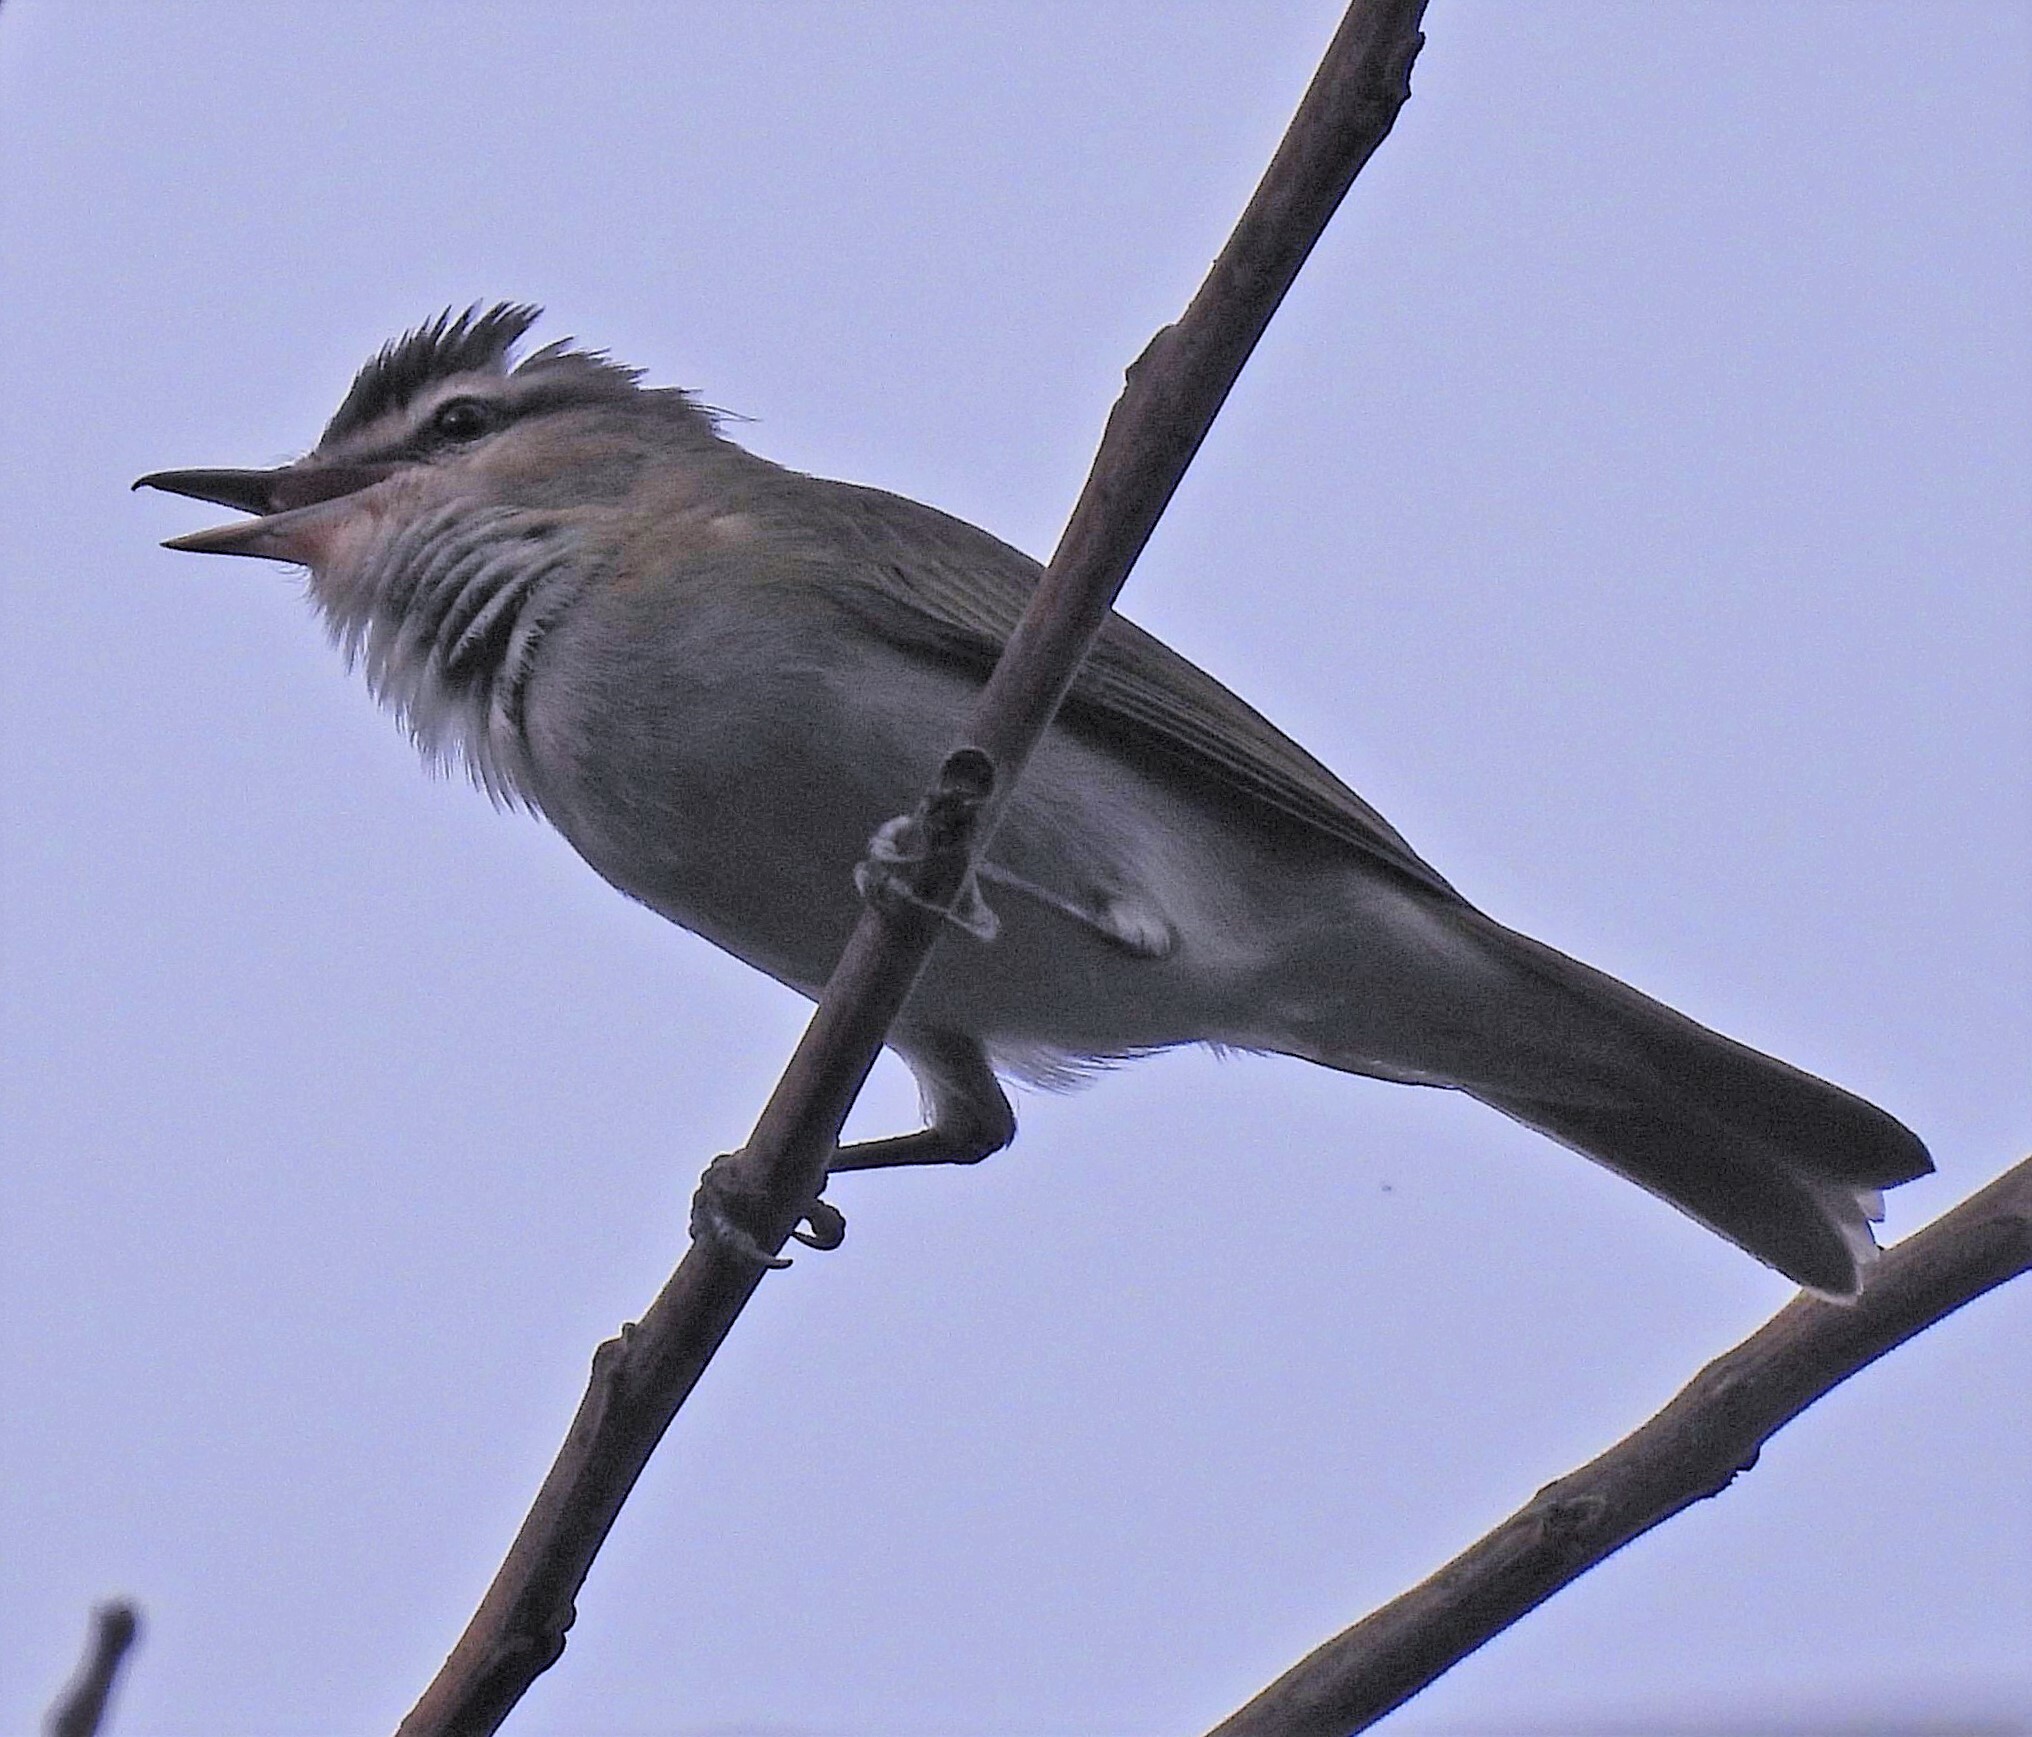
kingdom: Animalia
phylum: Chordata
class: Aves
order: Passeriformes
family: Vireonidae
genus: Vireo
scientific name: Vireo olivaceus
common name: Red-eyed vireo
